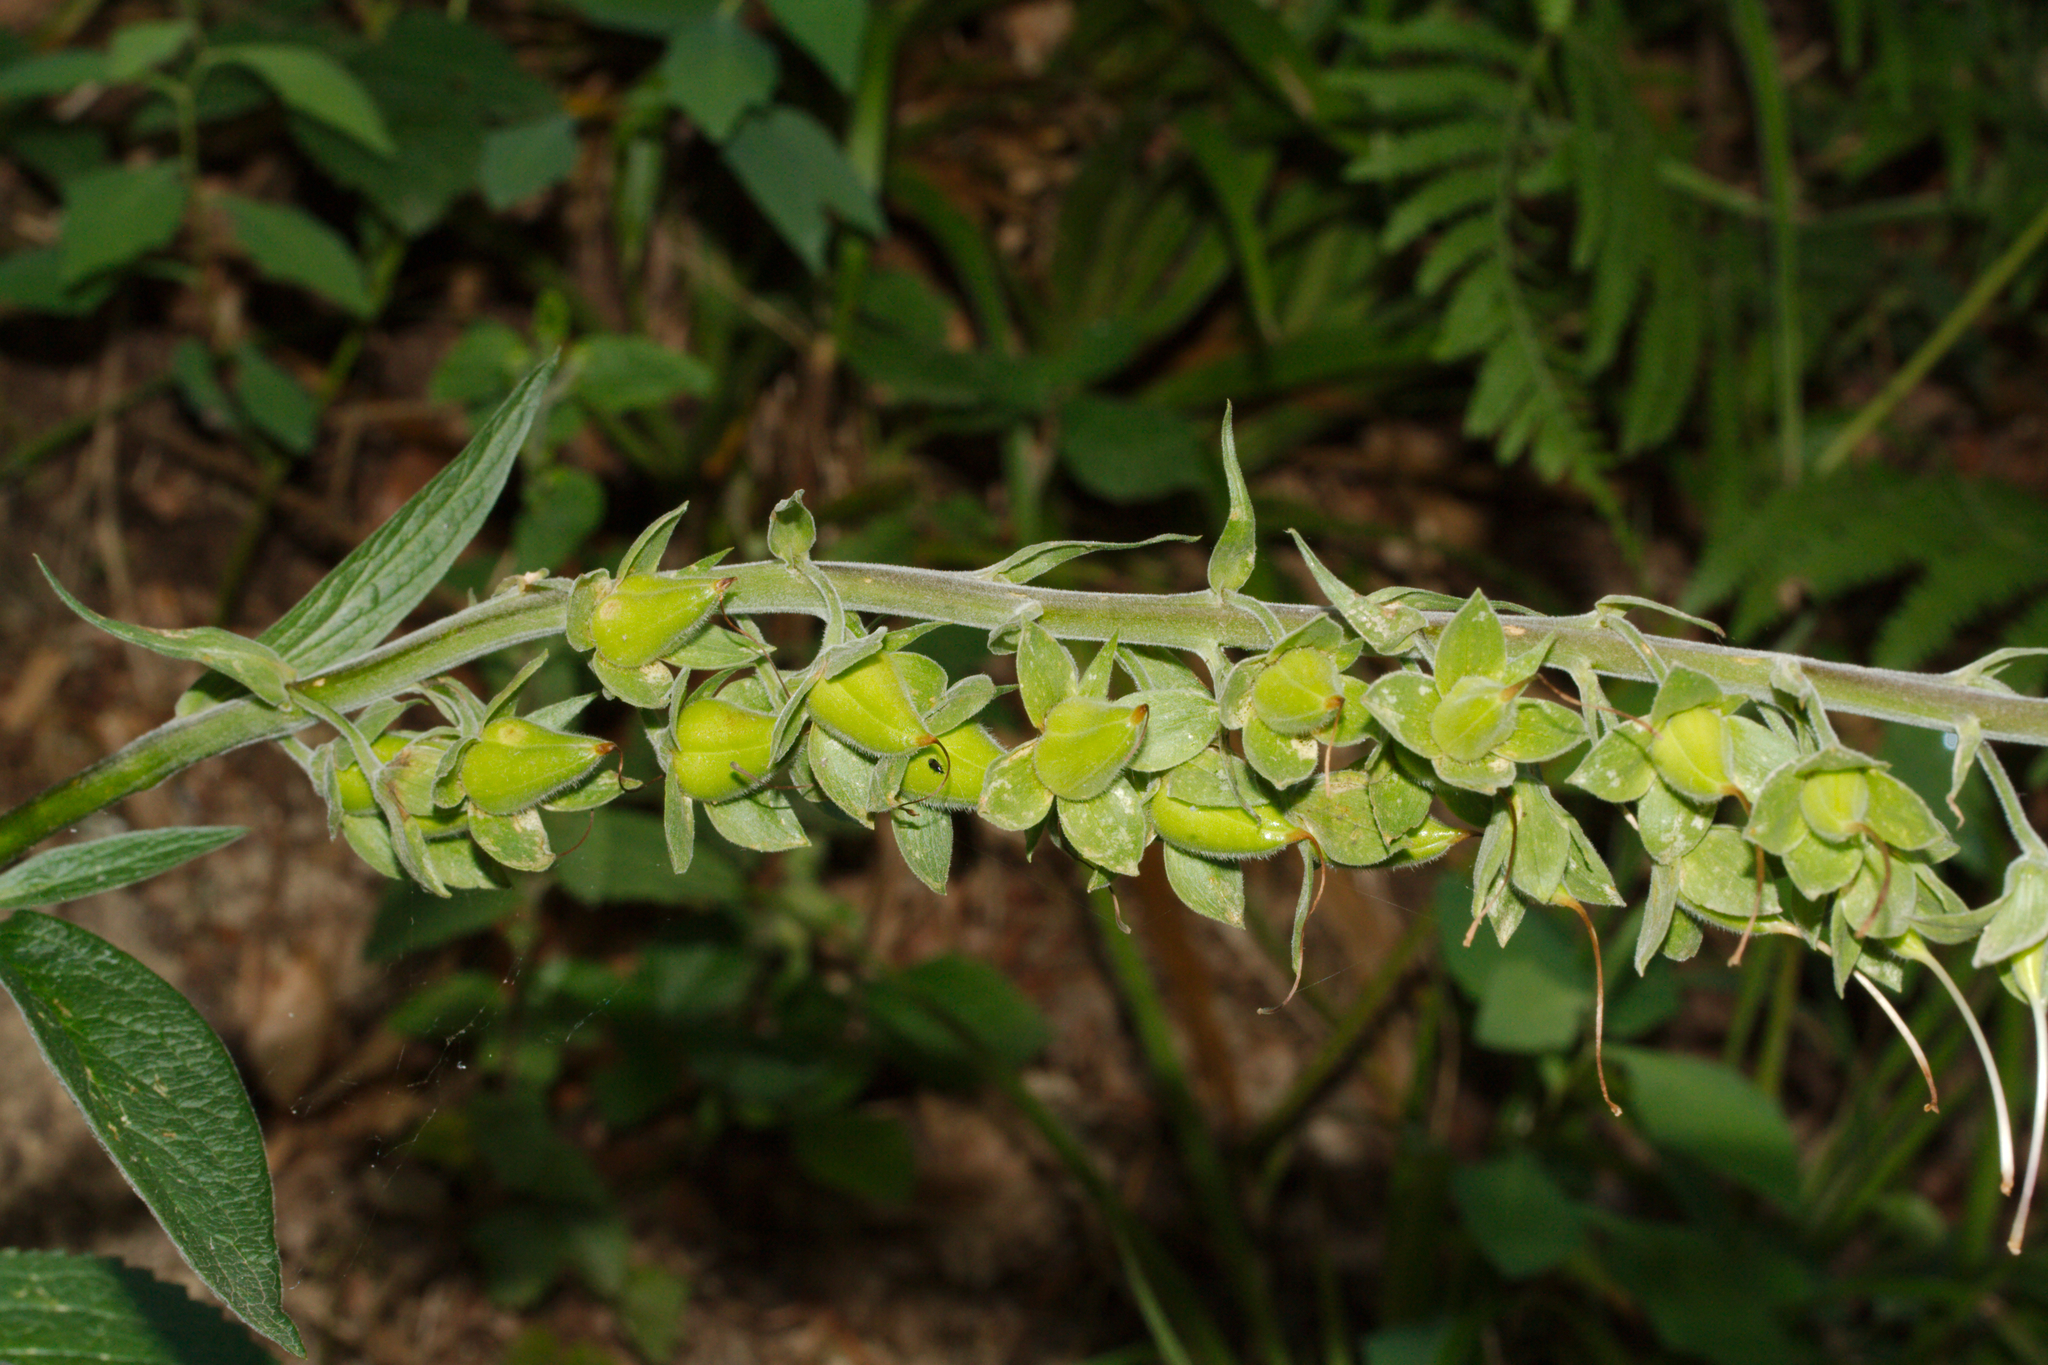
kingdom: Plantae
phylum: Tracheophyta
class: Magnoliopsida
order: Lamiales
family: Plantaginaceae
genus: Digitalis
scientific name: Digitalis purpurea
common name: Foxglove
